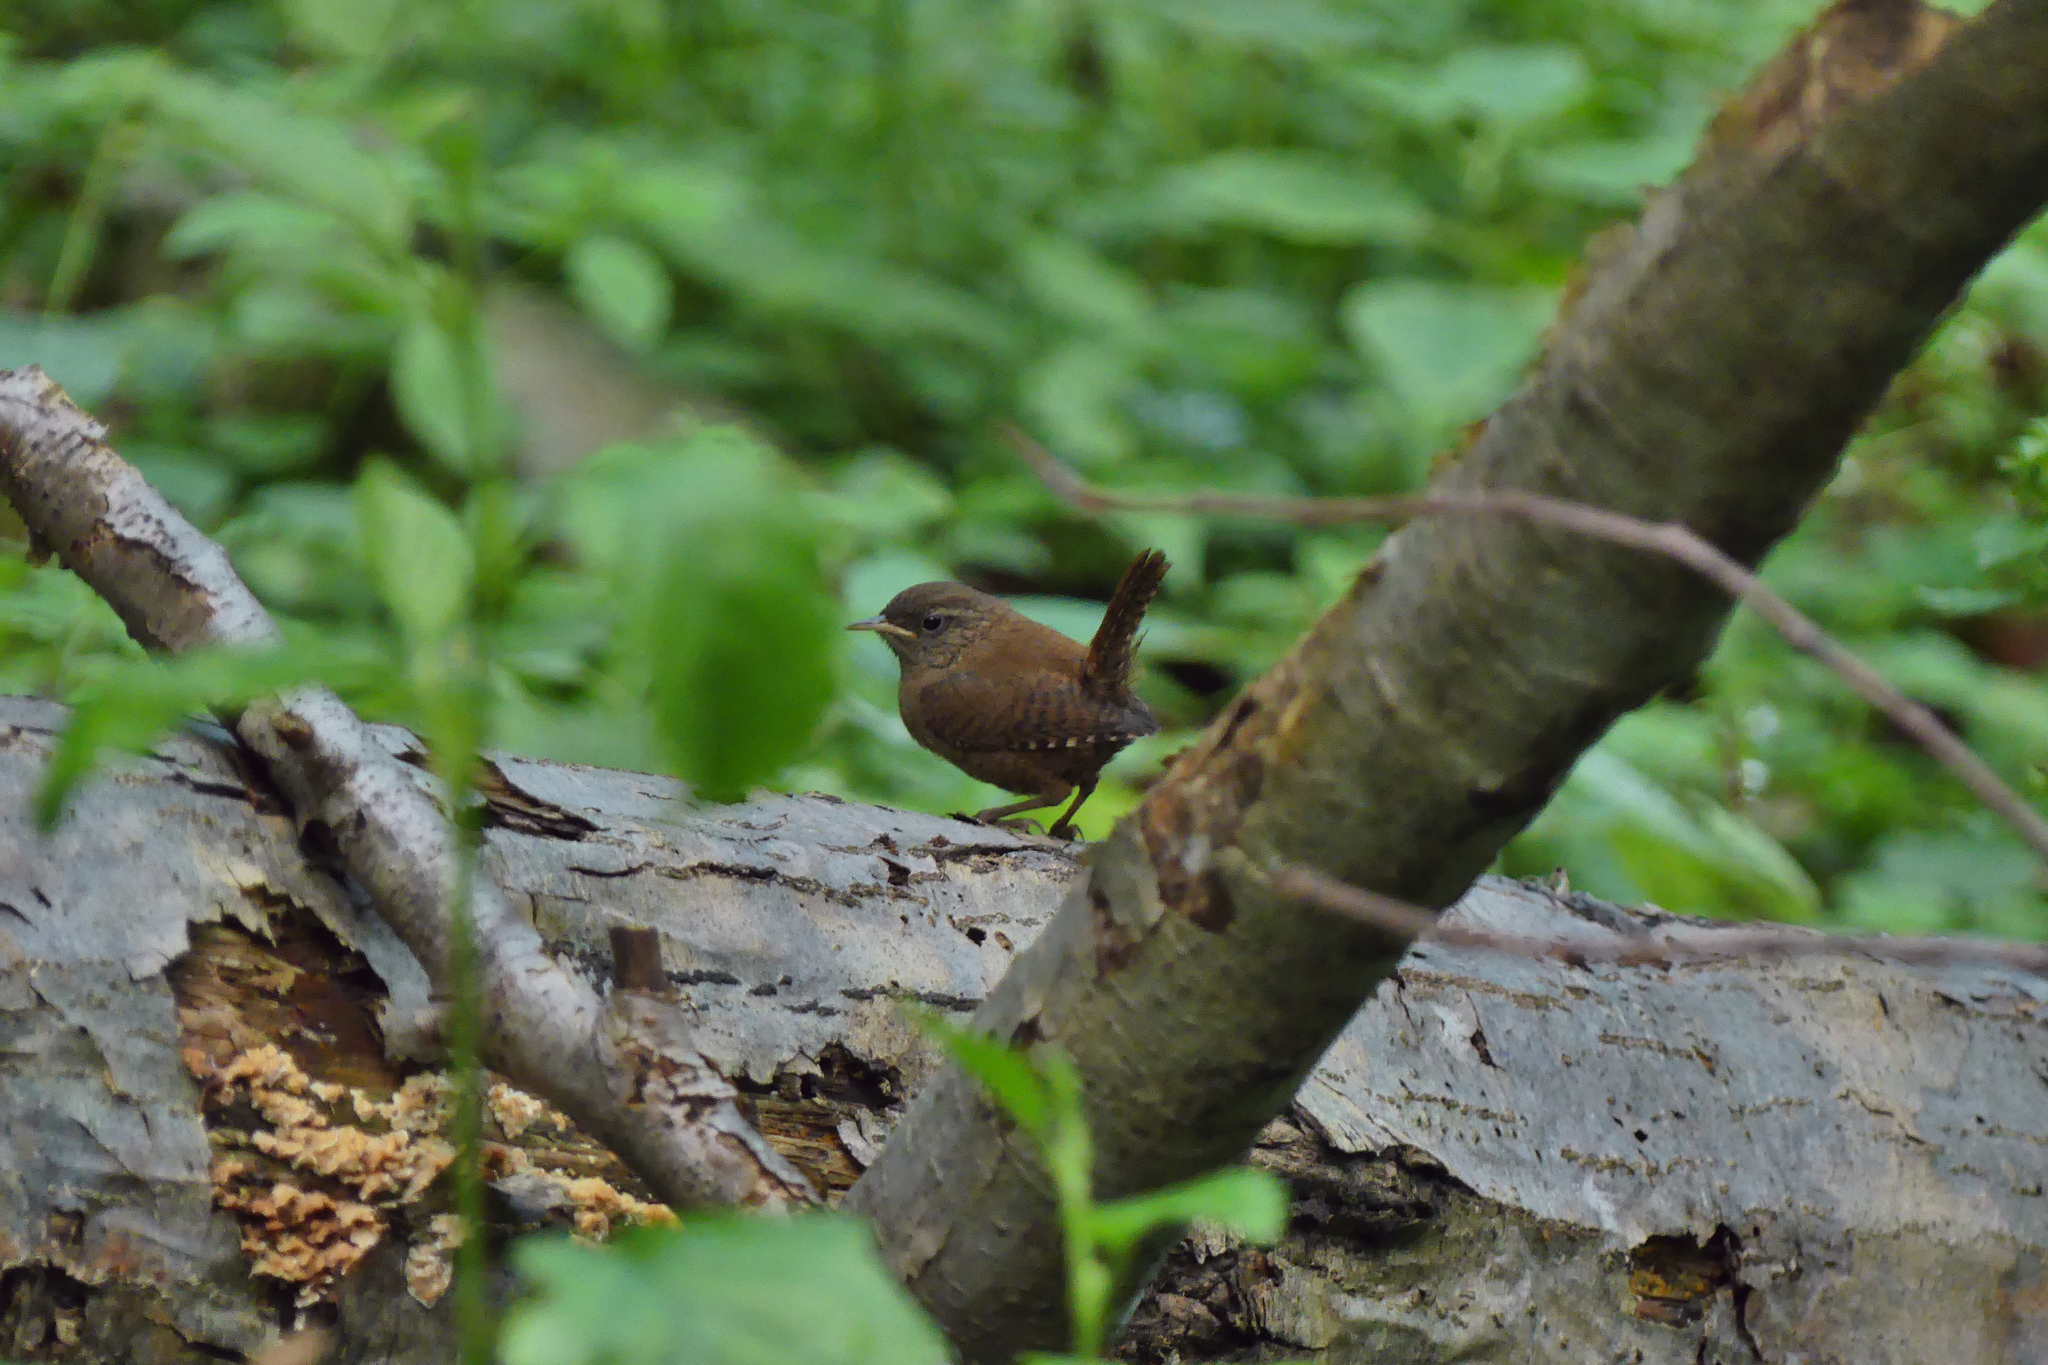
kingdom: Animalia
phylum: Chordata
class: Aves
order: Passeriformes
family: Troglodytidae
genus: Troglodytes
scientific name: Troglodytes troglodytes
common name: Eurasian wren
